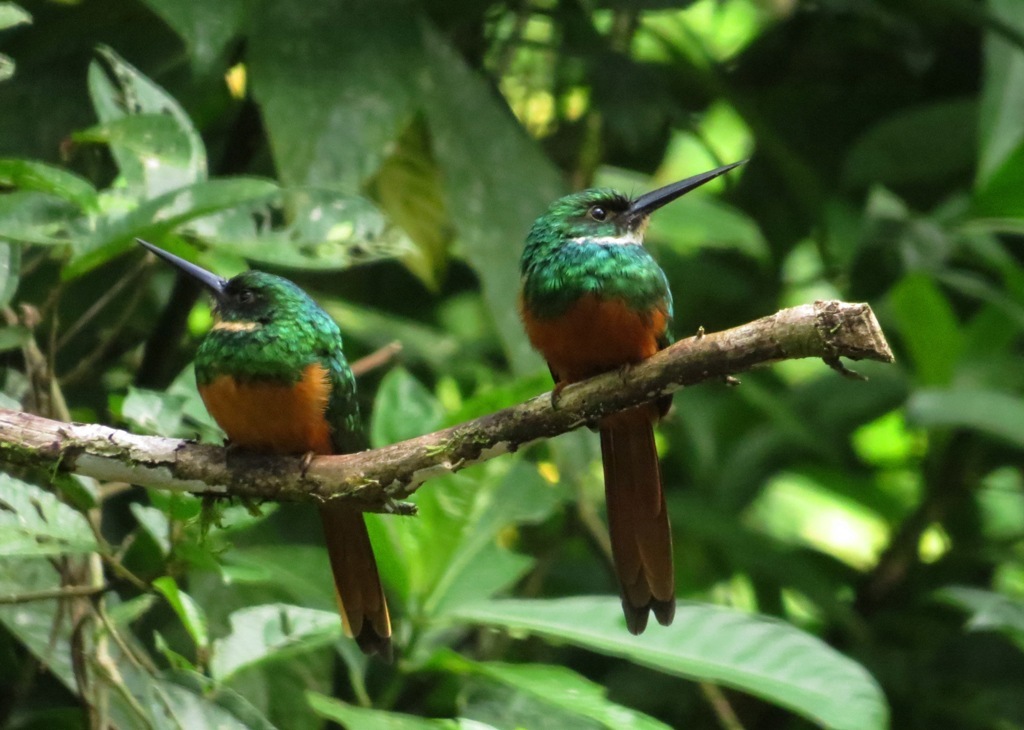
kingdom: Animalia
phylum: Chordata
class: Aves
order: Piciformes
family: Galbulidae
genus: Galbula
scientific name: Galbula ruficauda
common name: Rufous-tailed jacamar
